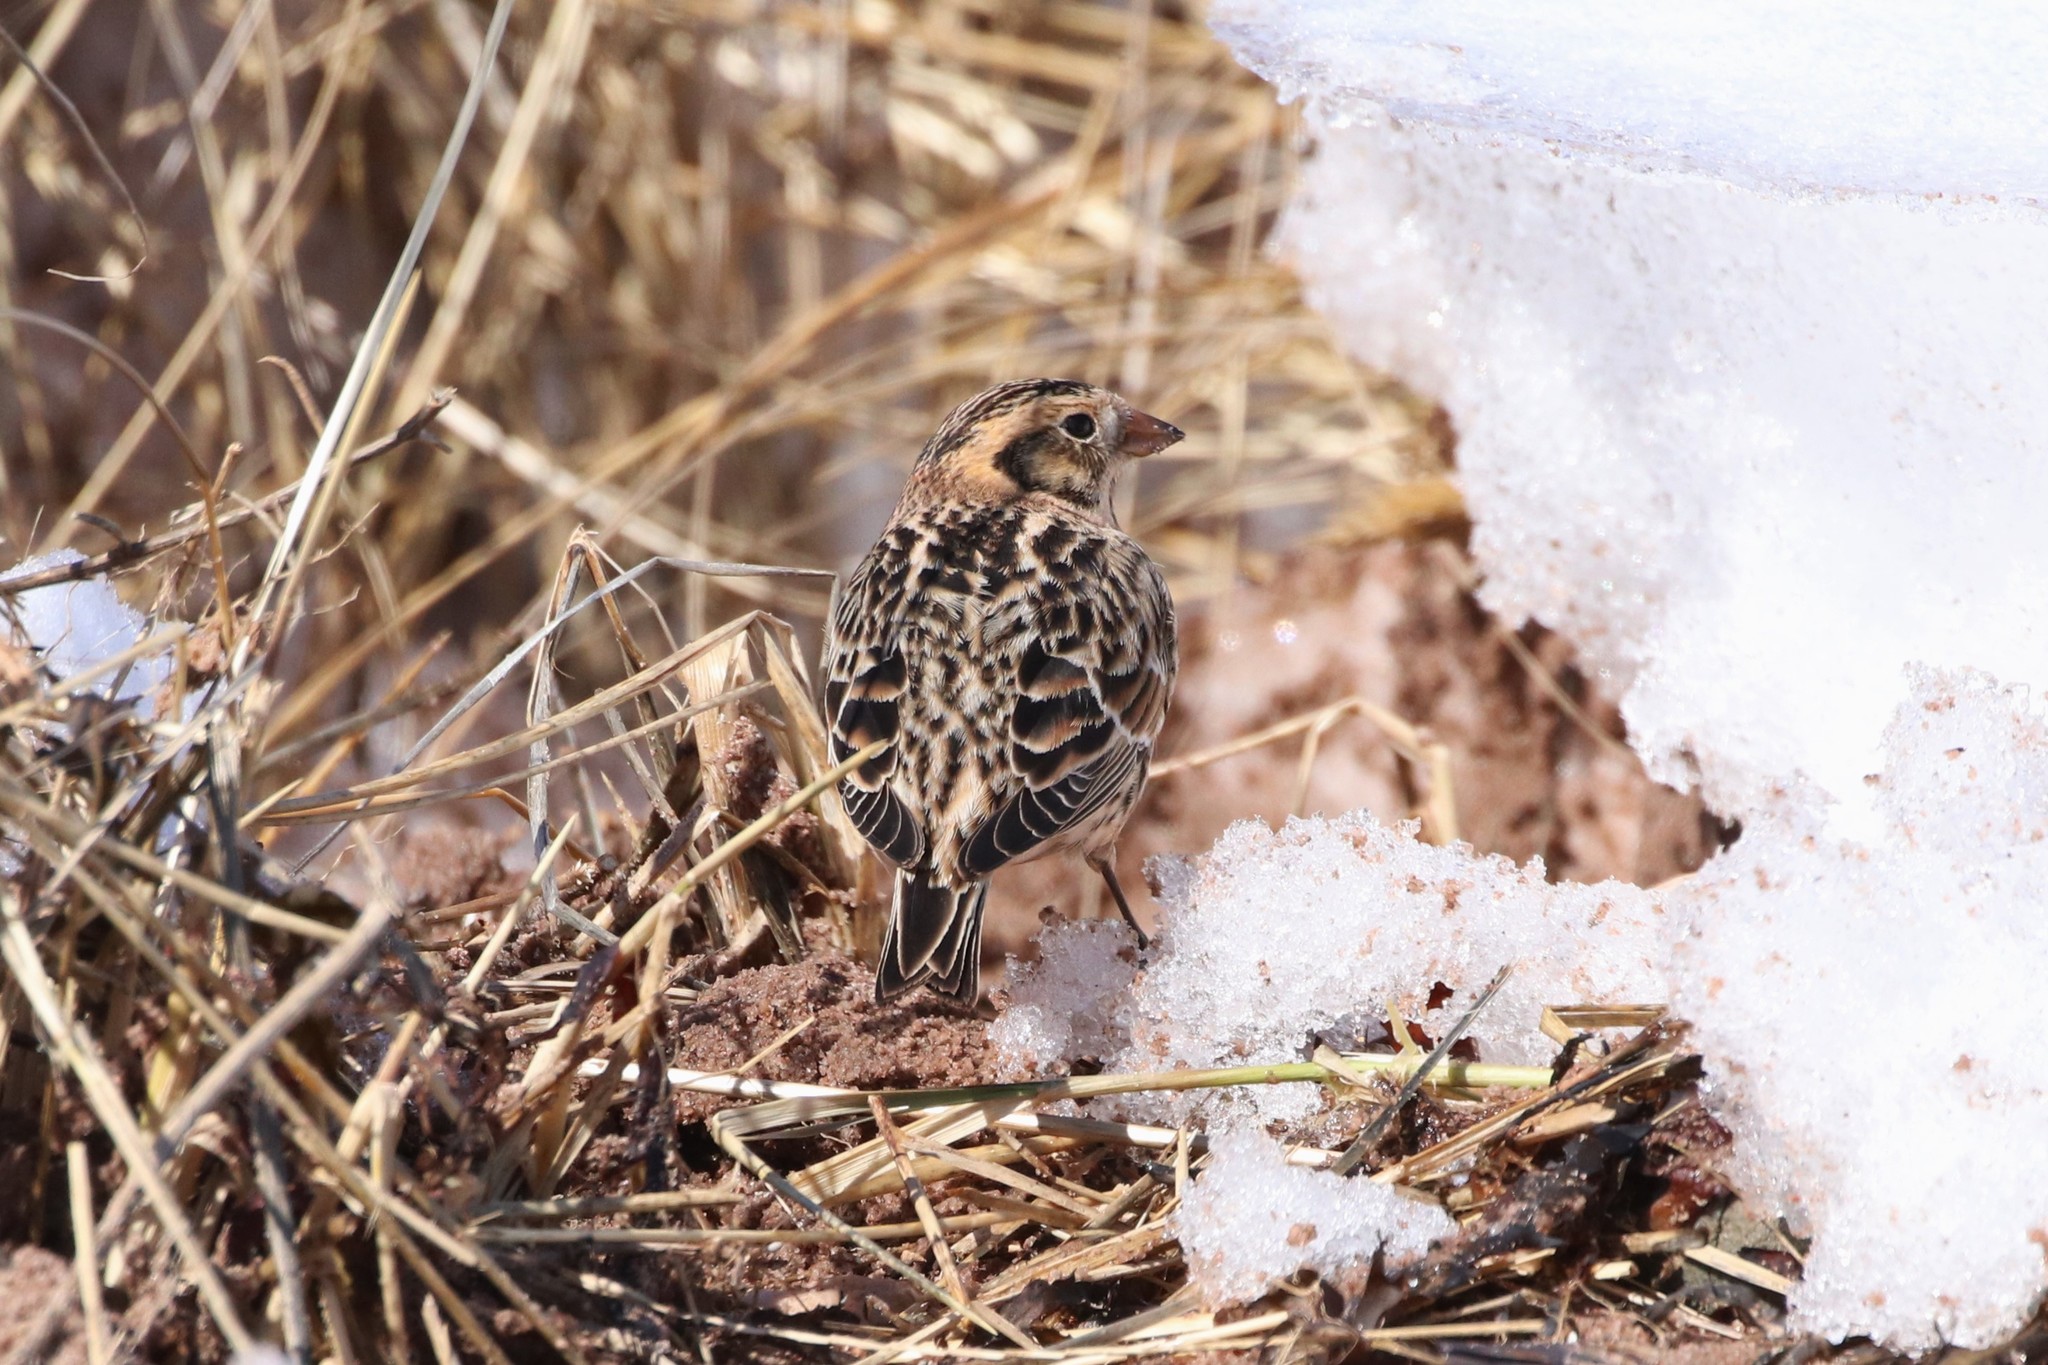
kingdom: Animalia
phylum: Chordata
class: Aves
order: Passeriformes
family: Calcariidae
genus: Calcarius
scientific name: Calcarius lapponicus
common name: Lapland longspur
